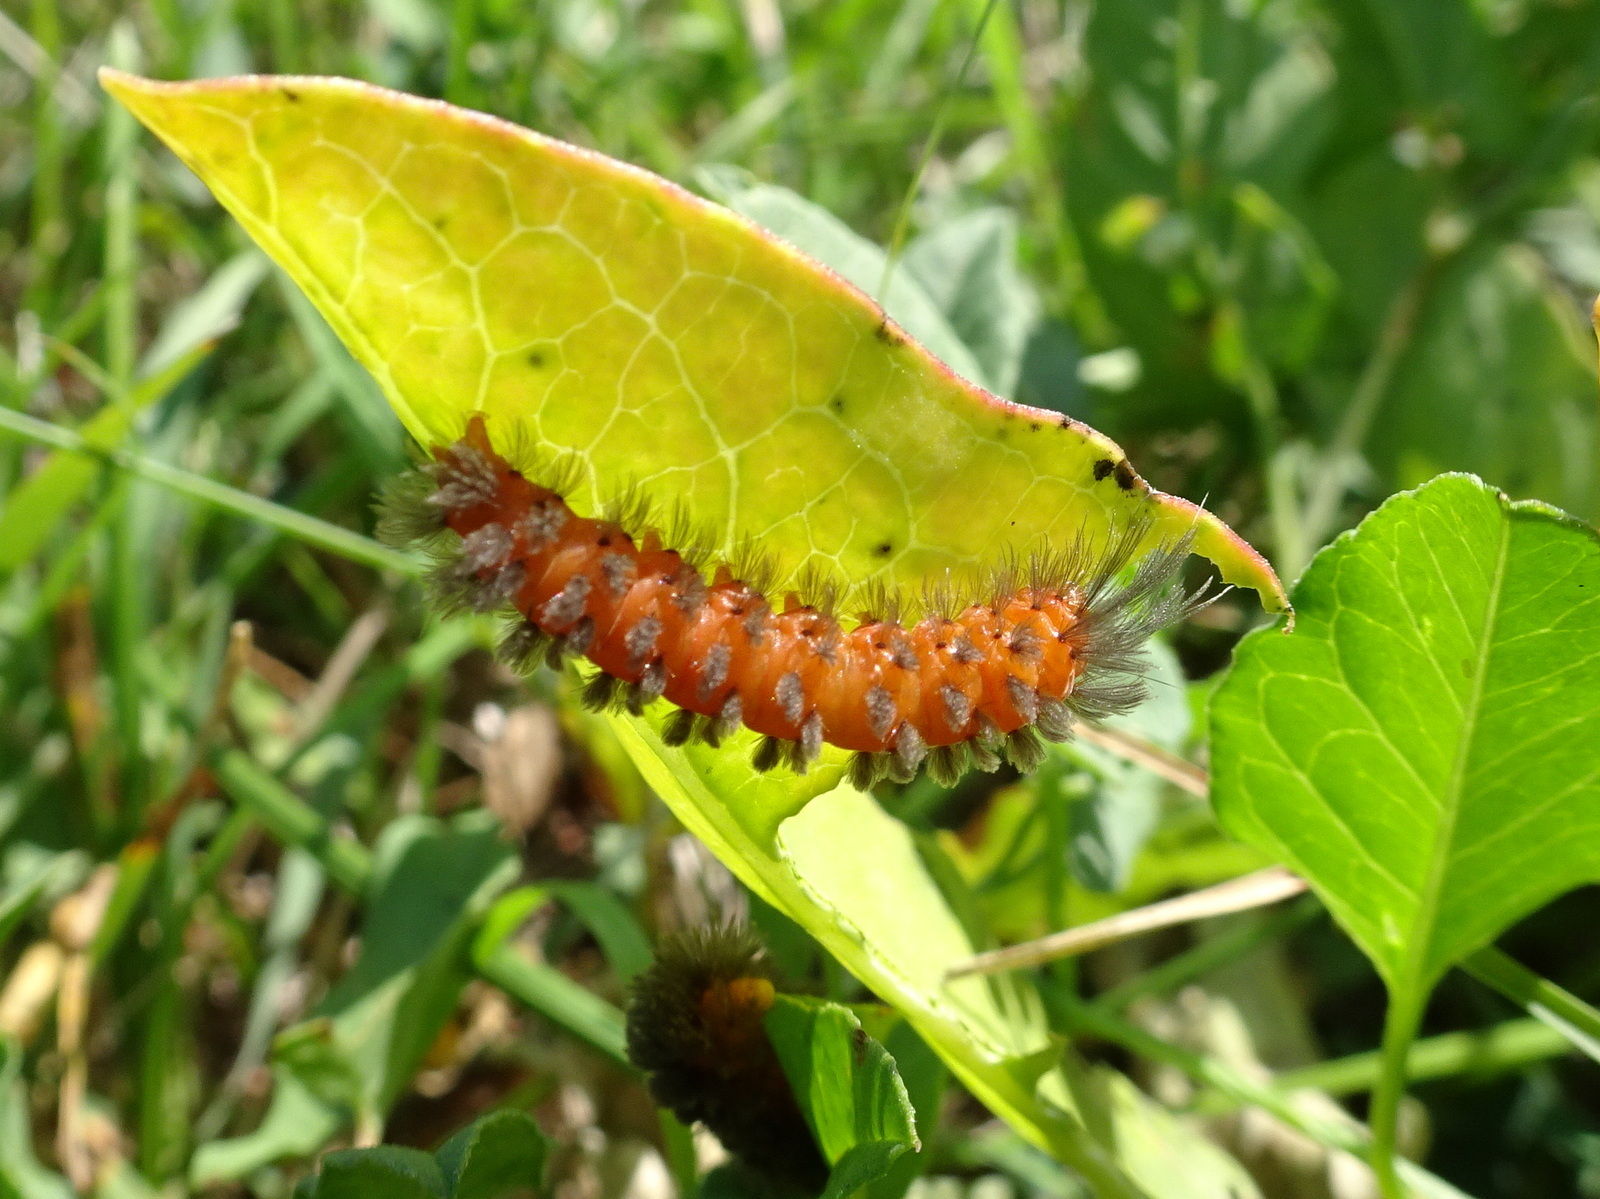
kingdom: Animalia
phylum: Arthropoda
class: Insecta
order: Lepidoptera
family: Erebidae
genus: Cycnia
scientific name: Cycnia collaris
